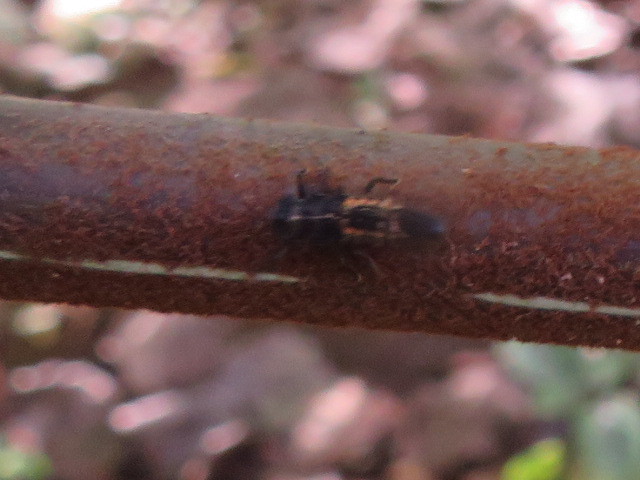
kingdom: Animalia
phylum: Arthropoda
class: Insecta
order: Coleoptera
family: Coccinellidae
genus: Harmonia
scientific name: Harmonia axyridis
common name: Harlequin ladybird
